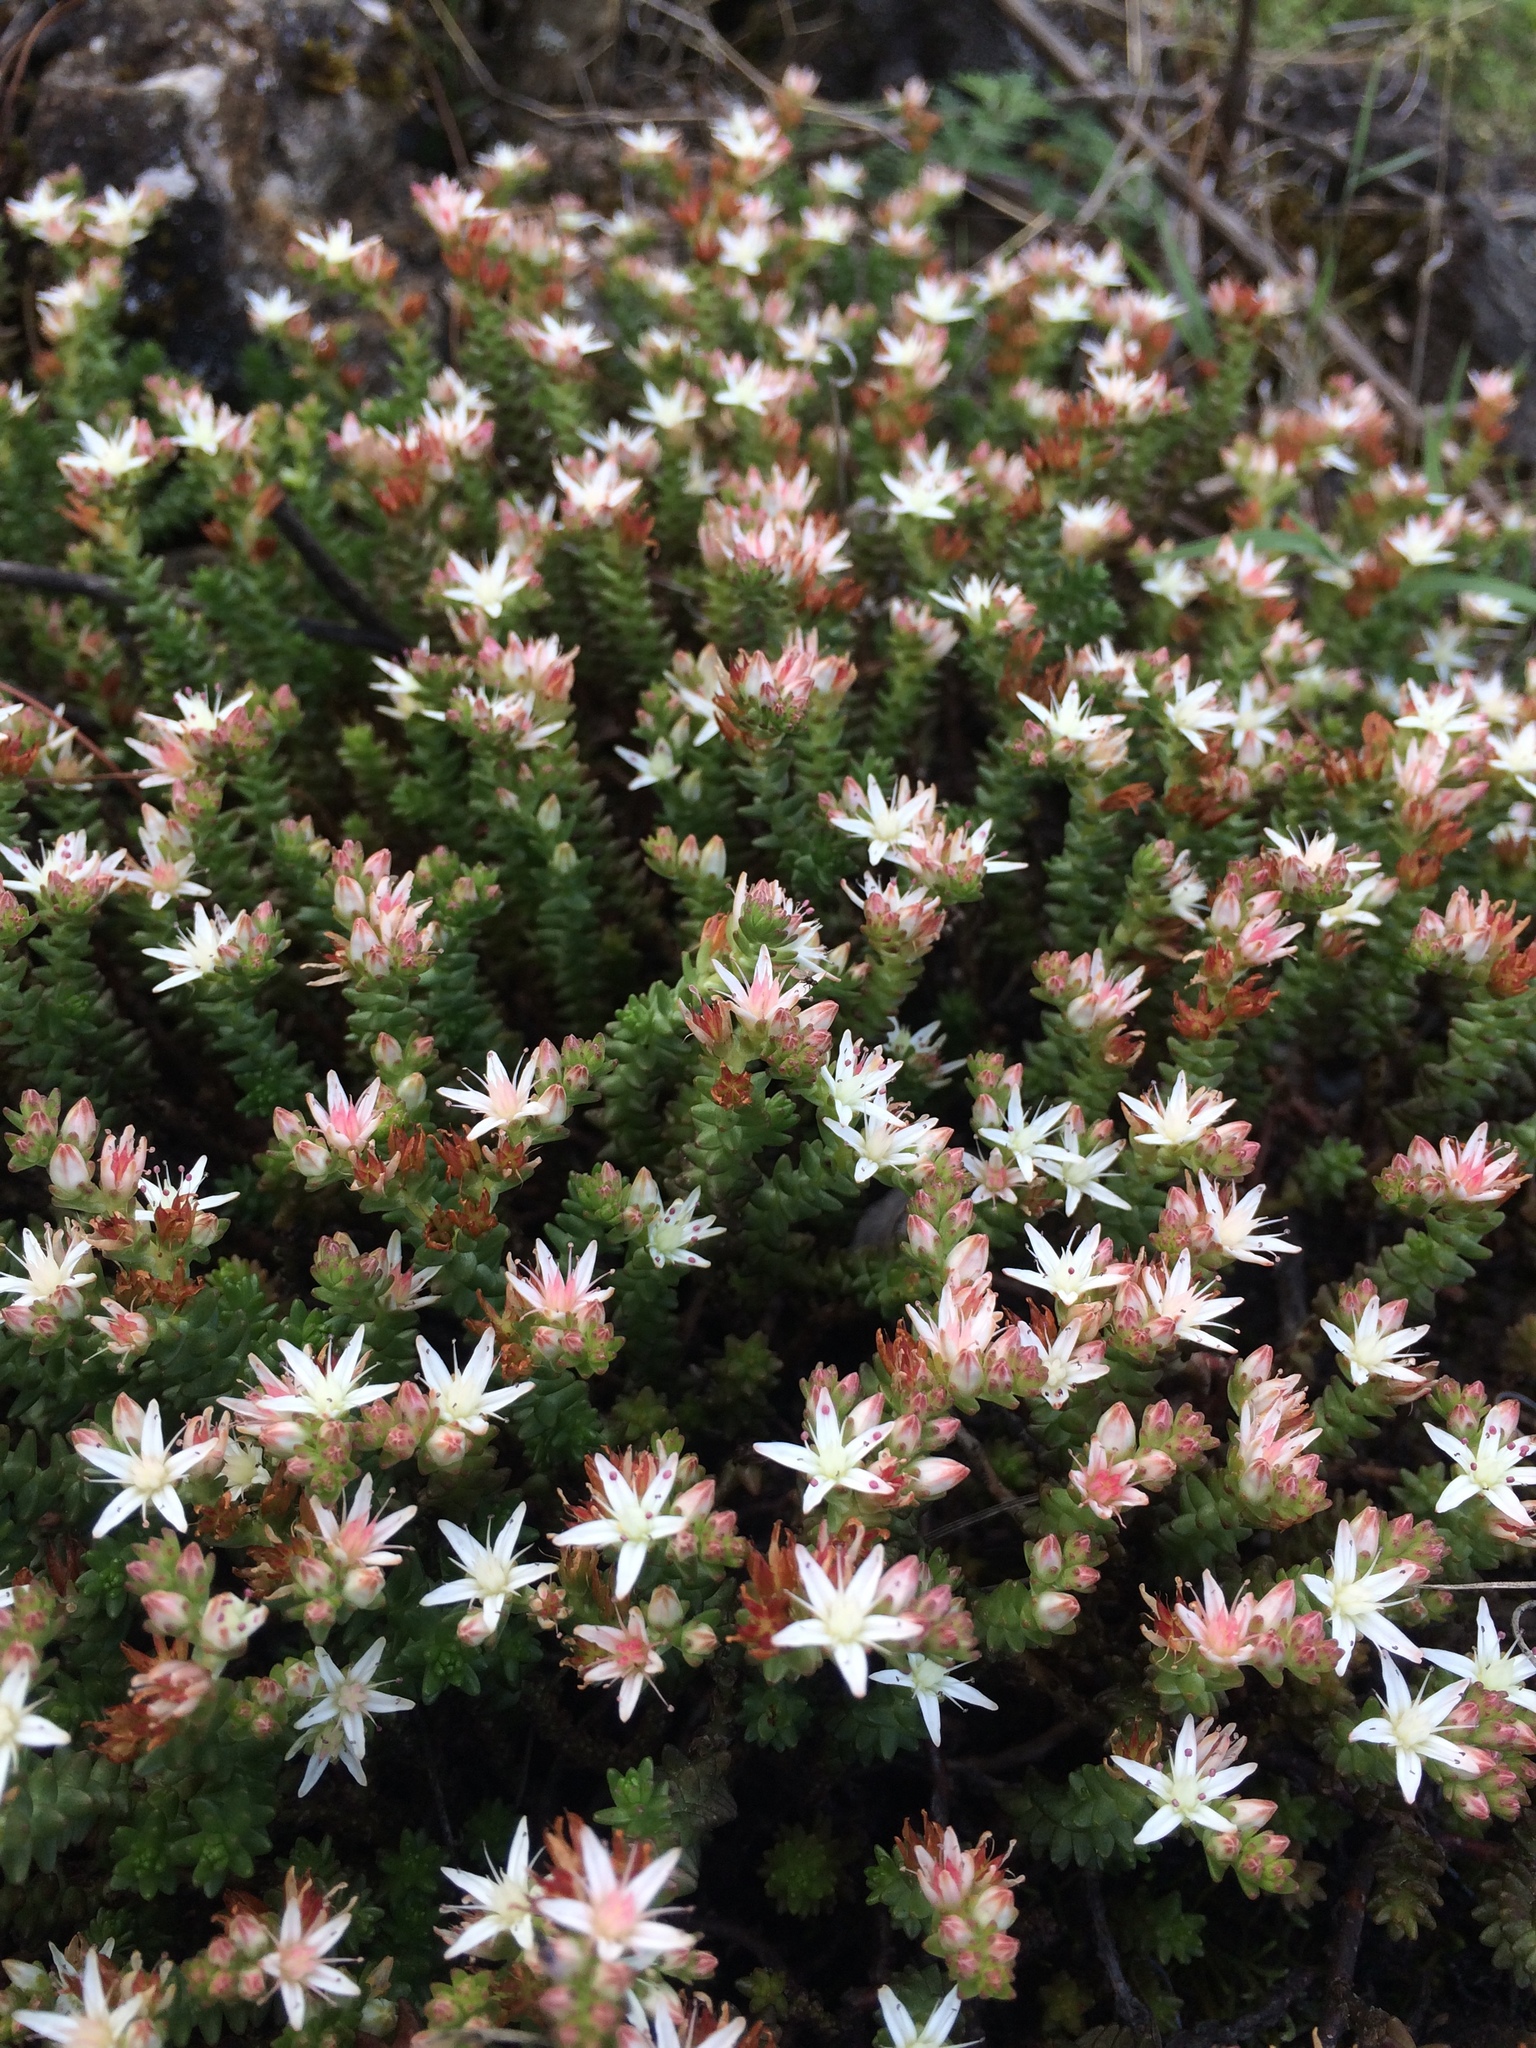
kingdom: Plantae
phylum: Tracheophyta
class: Magnoliopsida
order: Saxifragales
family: Crassulaceae
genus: Sedum
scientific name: Sedum moranense
